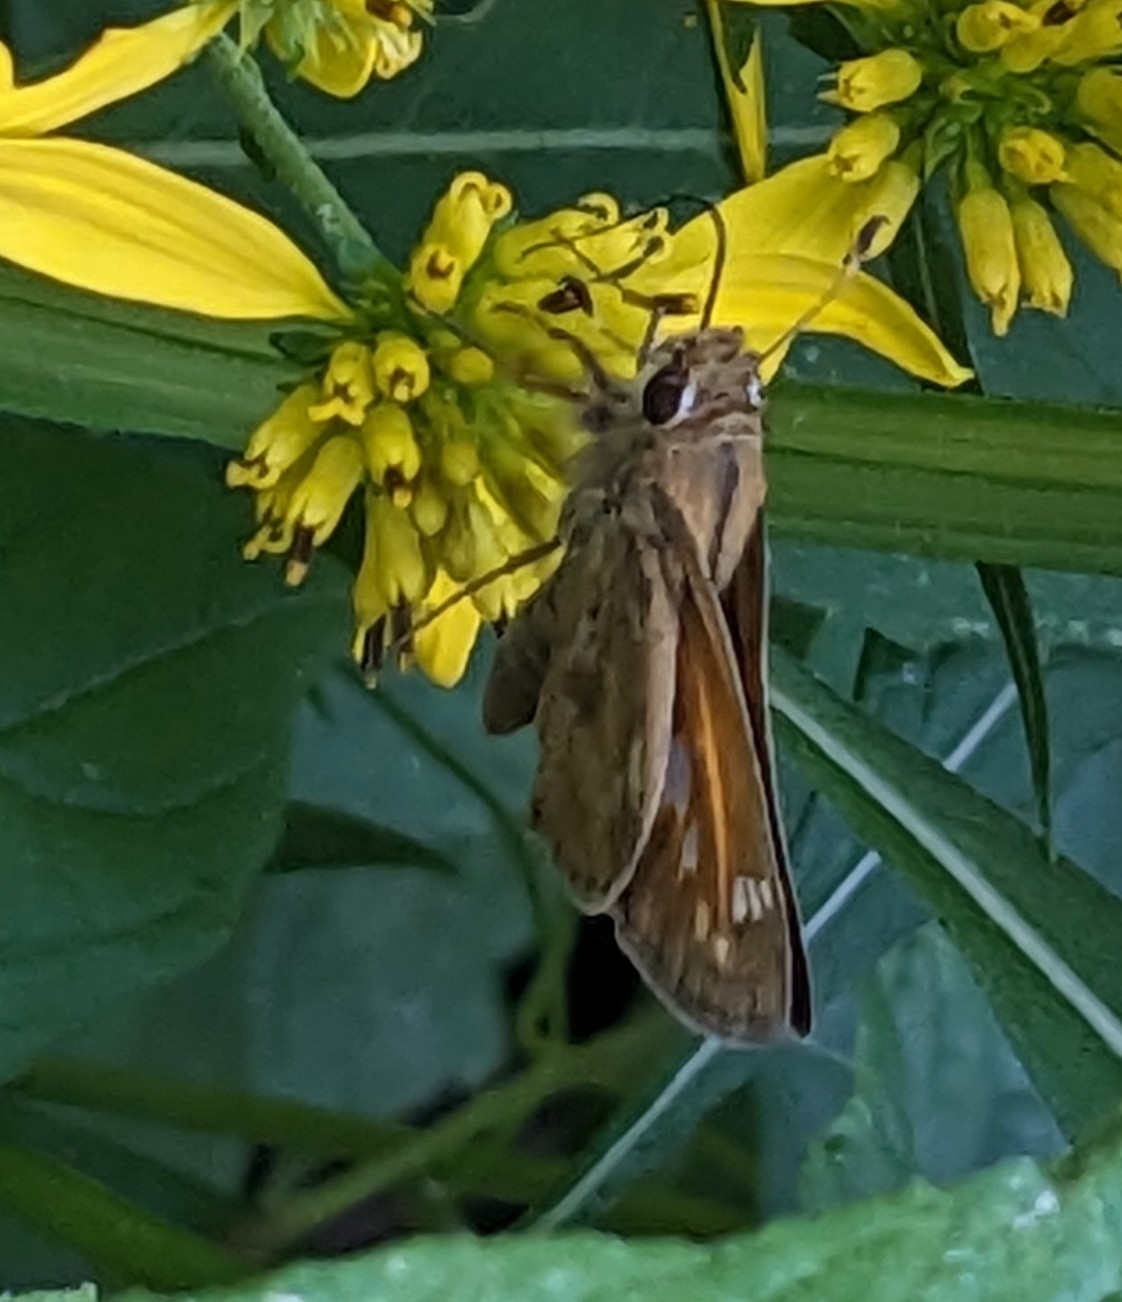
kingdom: Animalia
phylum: Arthropoda
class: Insecta
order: Lepidoptera
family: Hesperiidae
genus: Atalopedes
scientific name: Atalopedes
